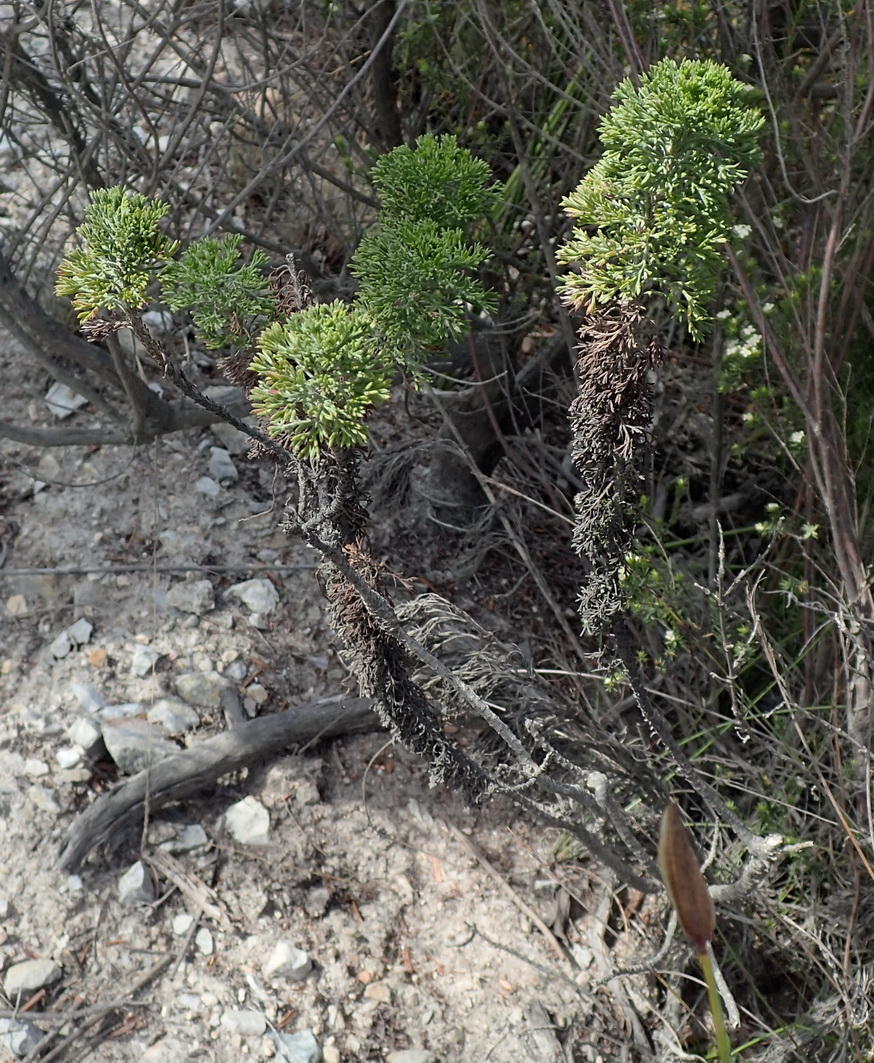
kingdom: Plantae
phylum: Tracheophyta
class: Magnoliopsida
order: Asterales
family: Asteraceae
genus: Ursinia
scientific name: Ursinia paleacea
